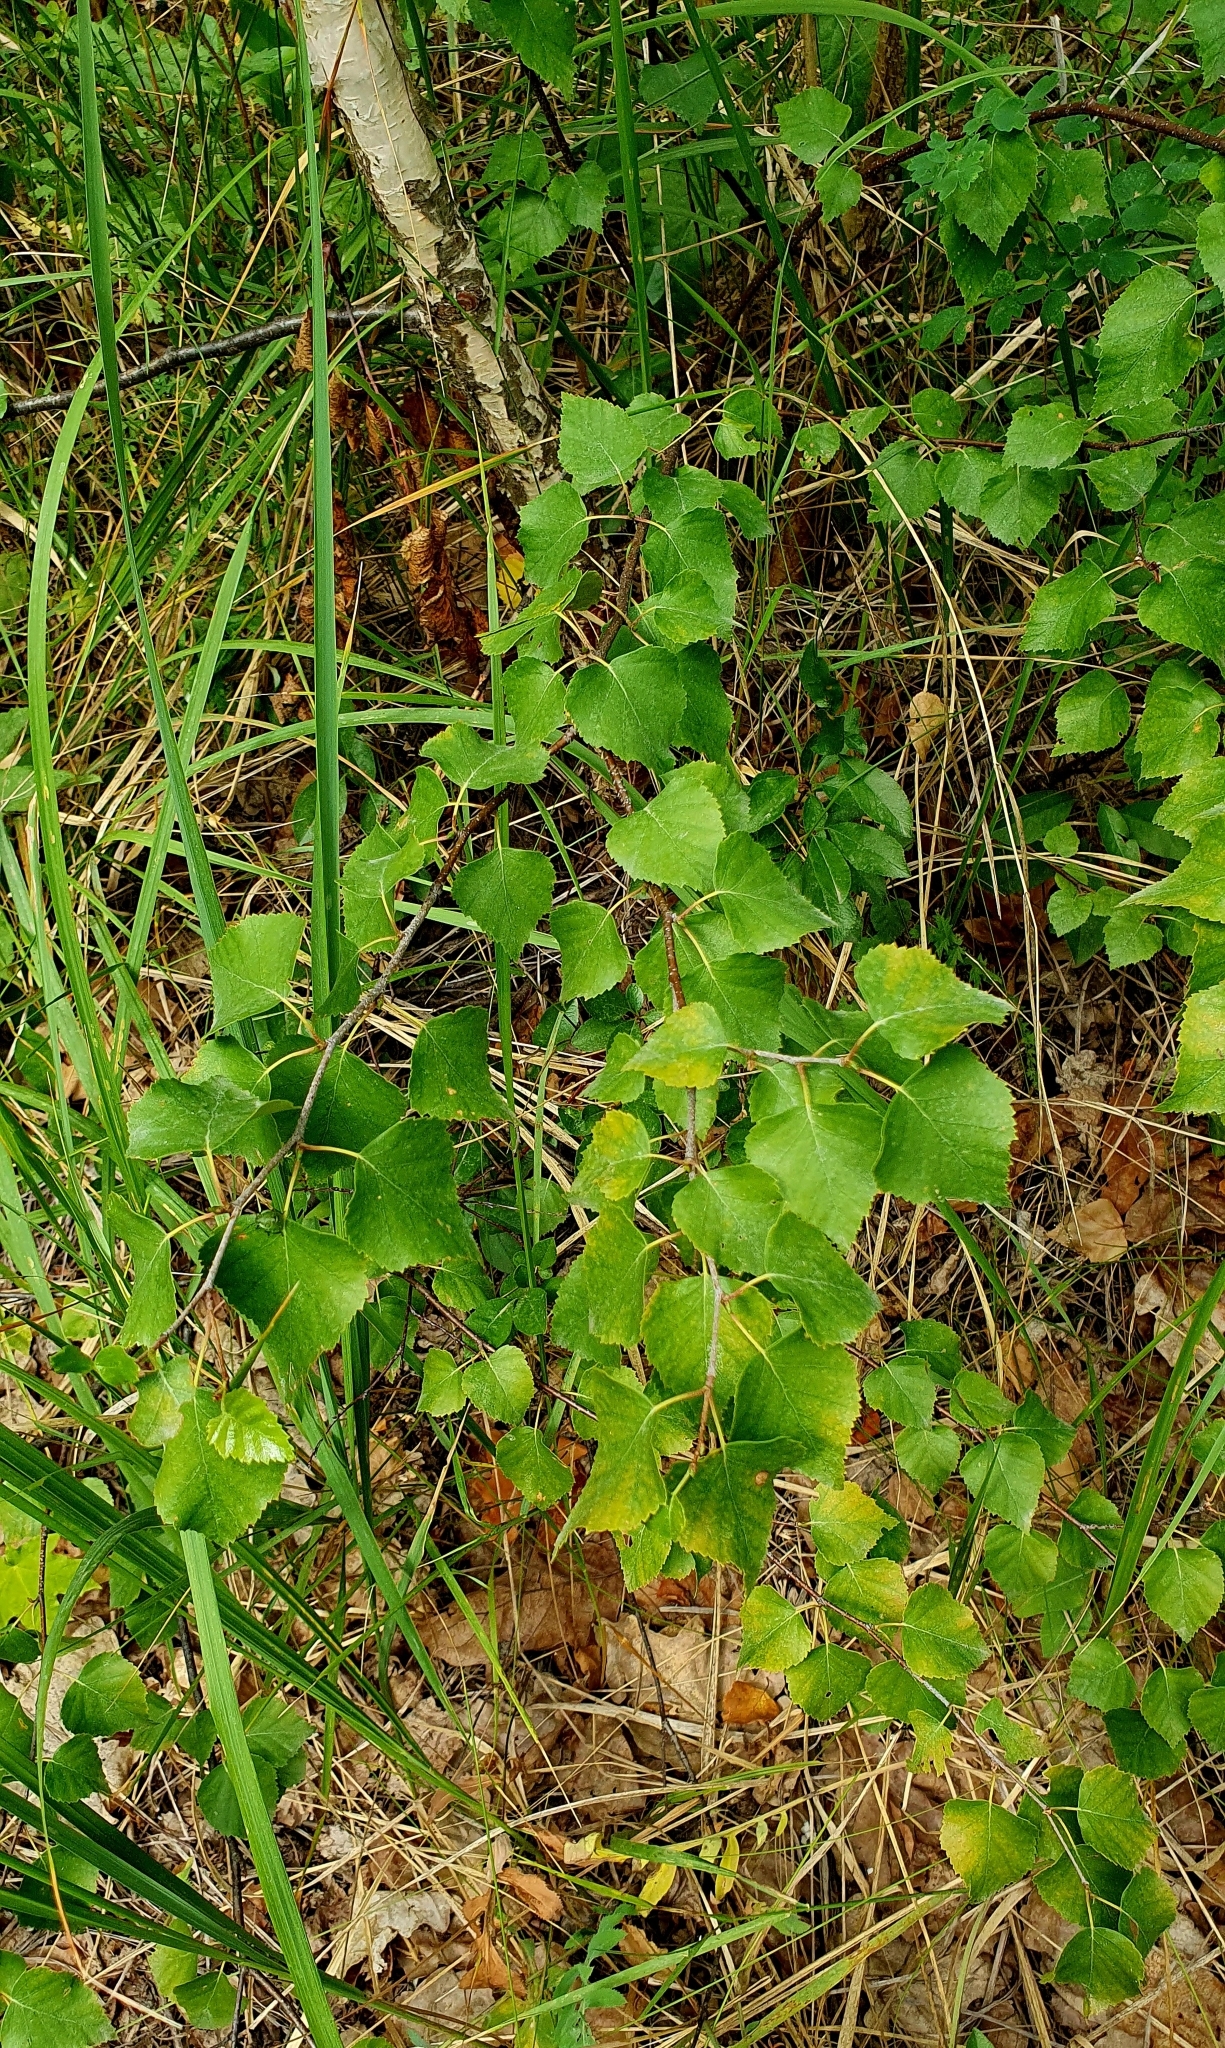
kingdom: Plantae
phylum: Tracheophyta
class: Magnoliopsida
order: Fagales
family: Betulaceae
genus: Betula
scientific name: Betula pendula
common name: Silver birch
